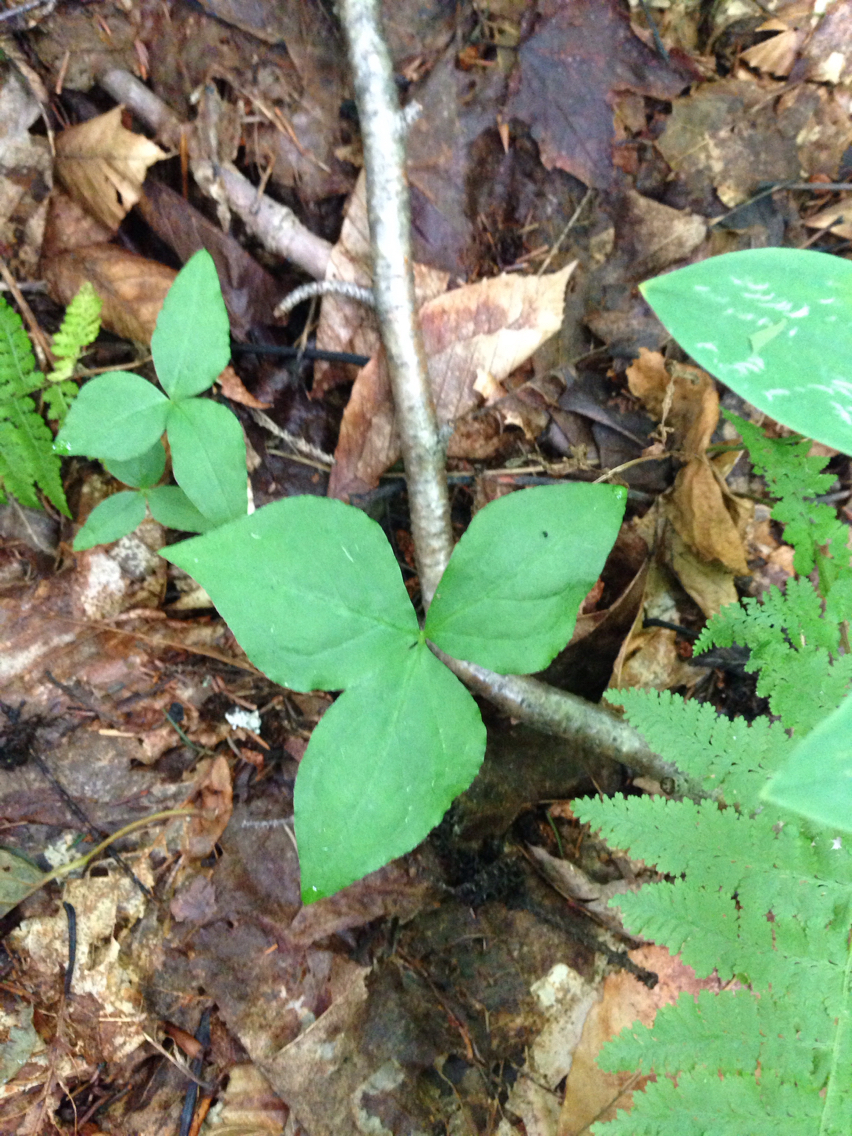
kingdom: Plantae
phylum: Tracheophyta
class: Liliopsida
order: Alismatales
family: Araceae
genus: Arisaema
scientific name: Arisaema triphyllum
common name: Jack-in-the-pulpit
